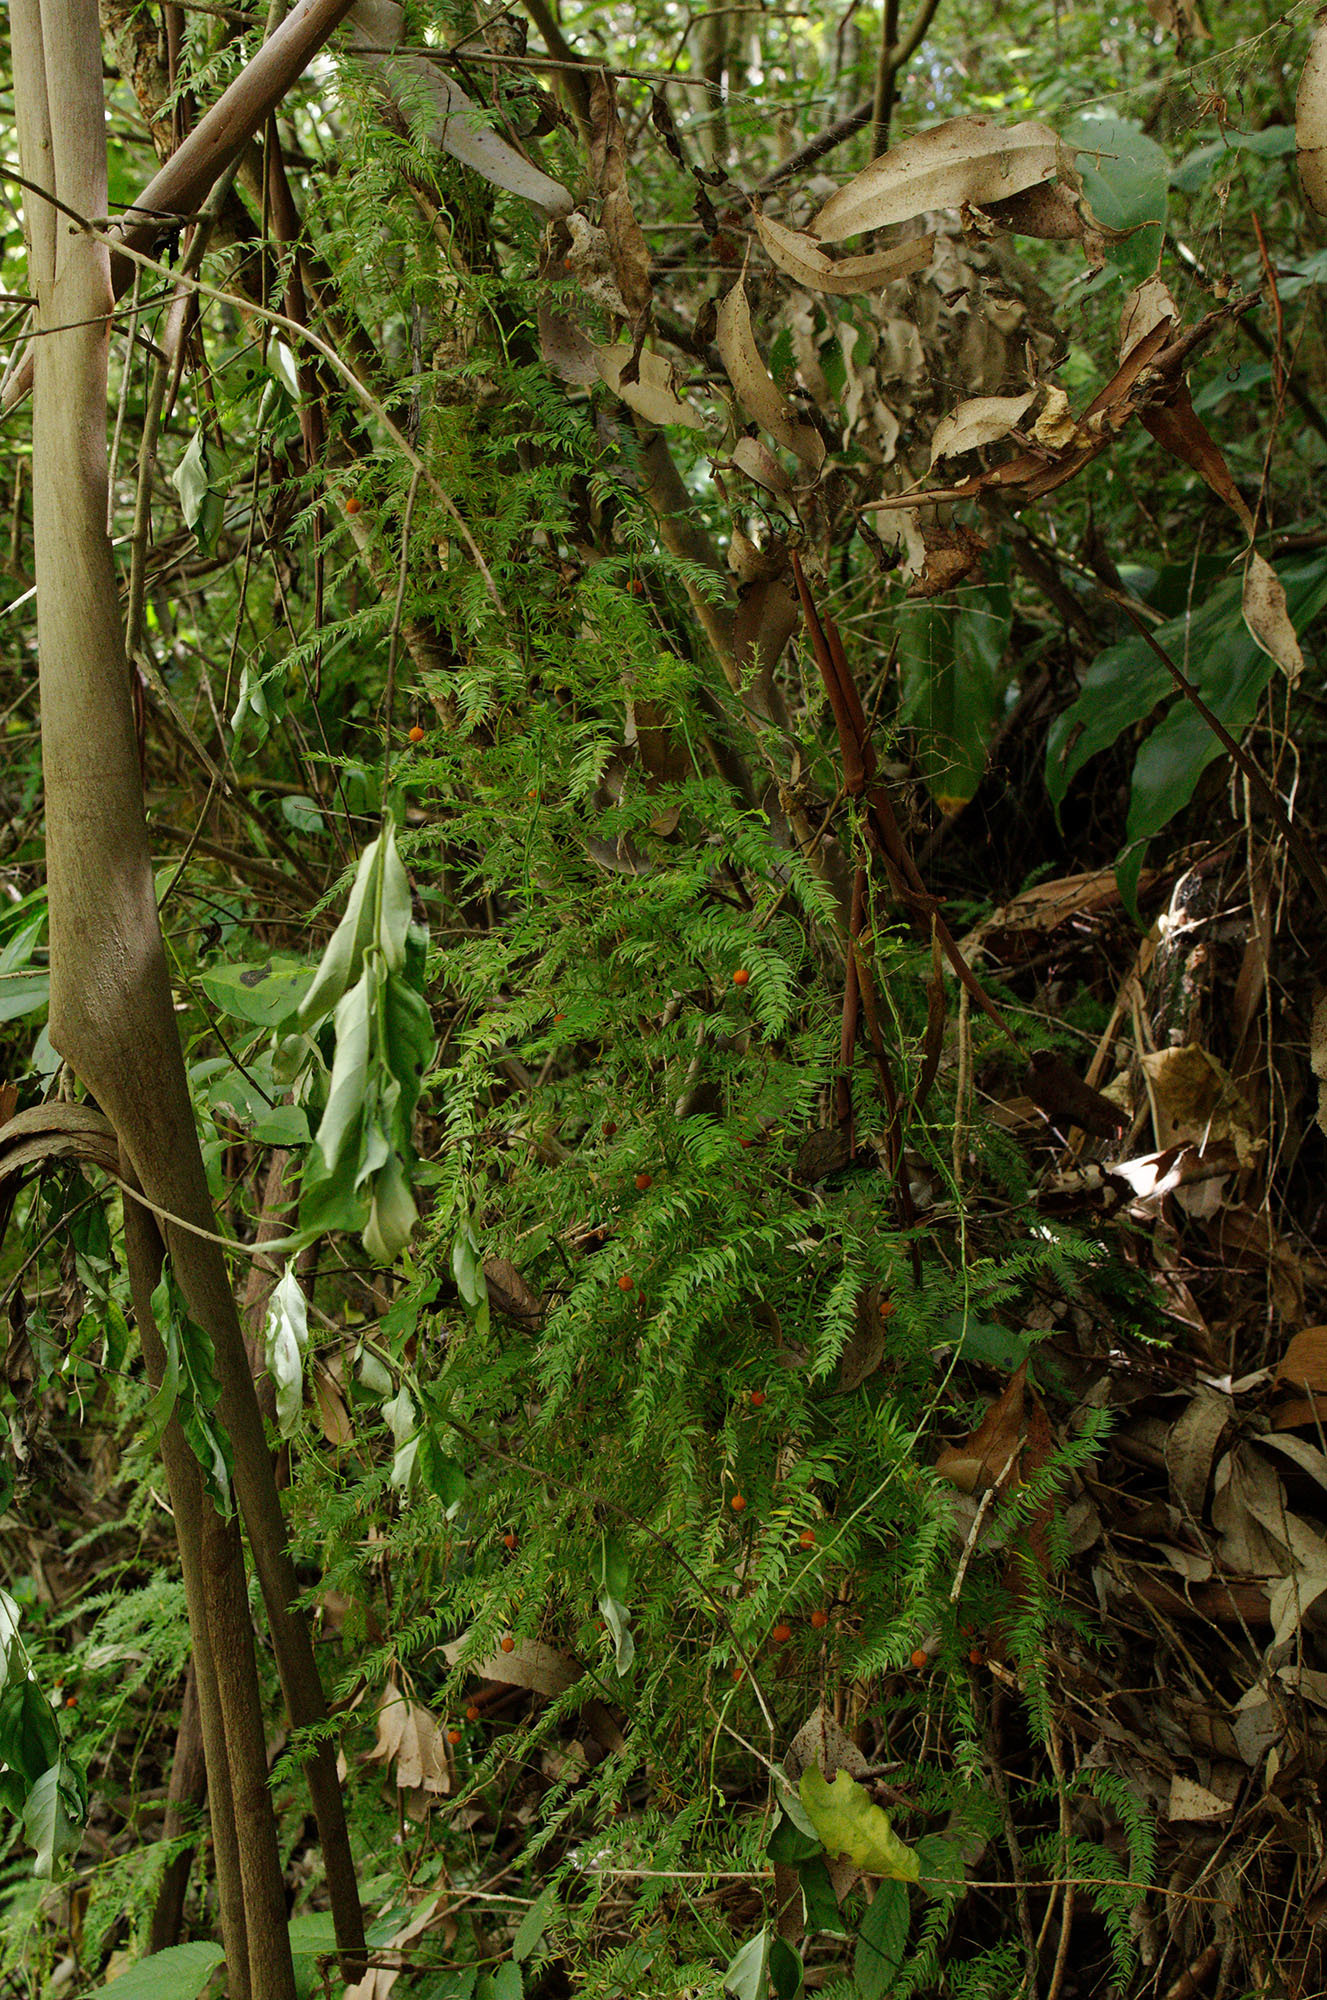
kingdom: Plantae
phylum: Tracheophyta
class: Liliopsida
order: Asparagales
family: Asparagaceae
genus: Asparagus
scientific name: Asparagus scandens
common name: Asparagus-fern
